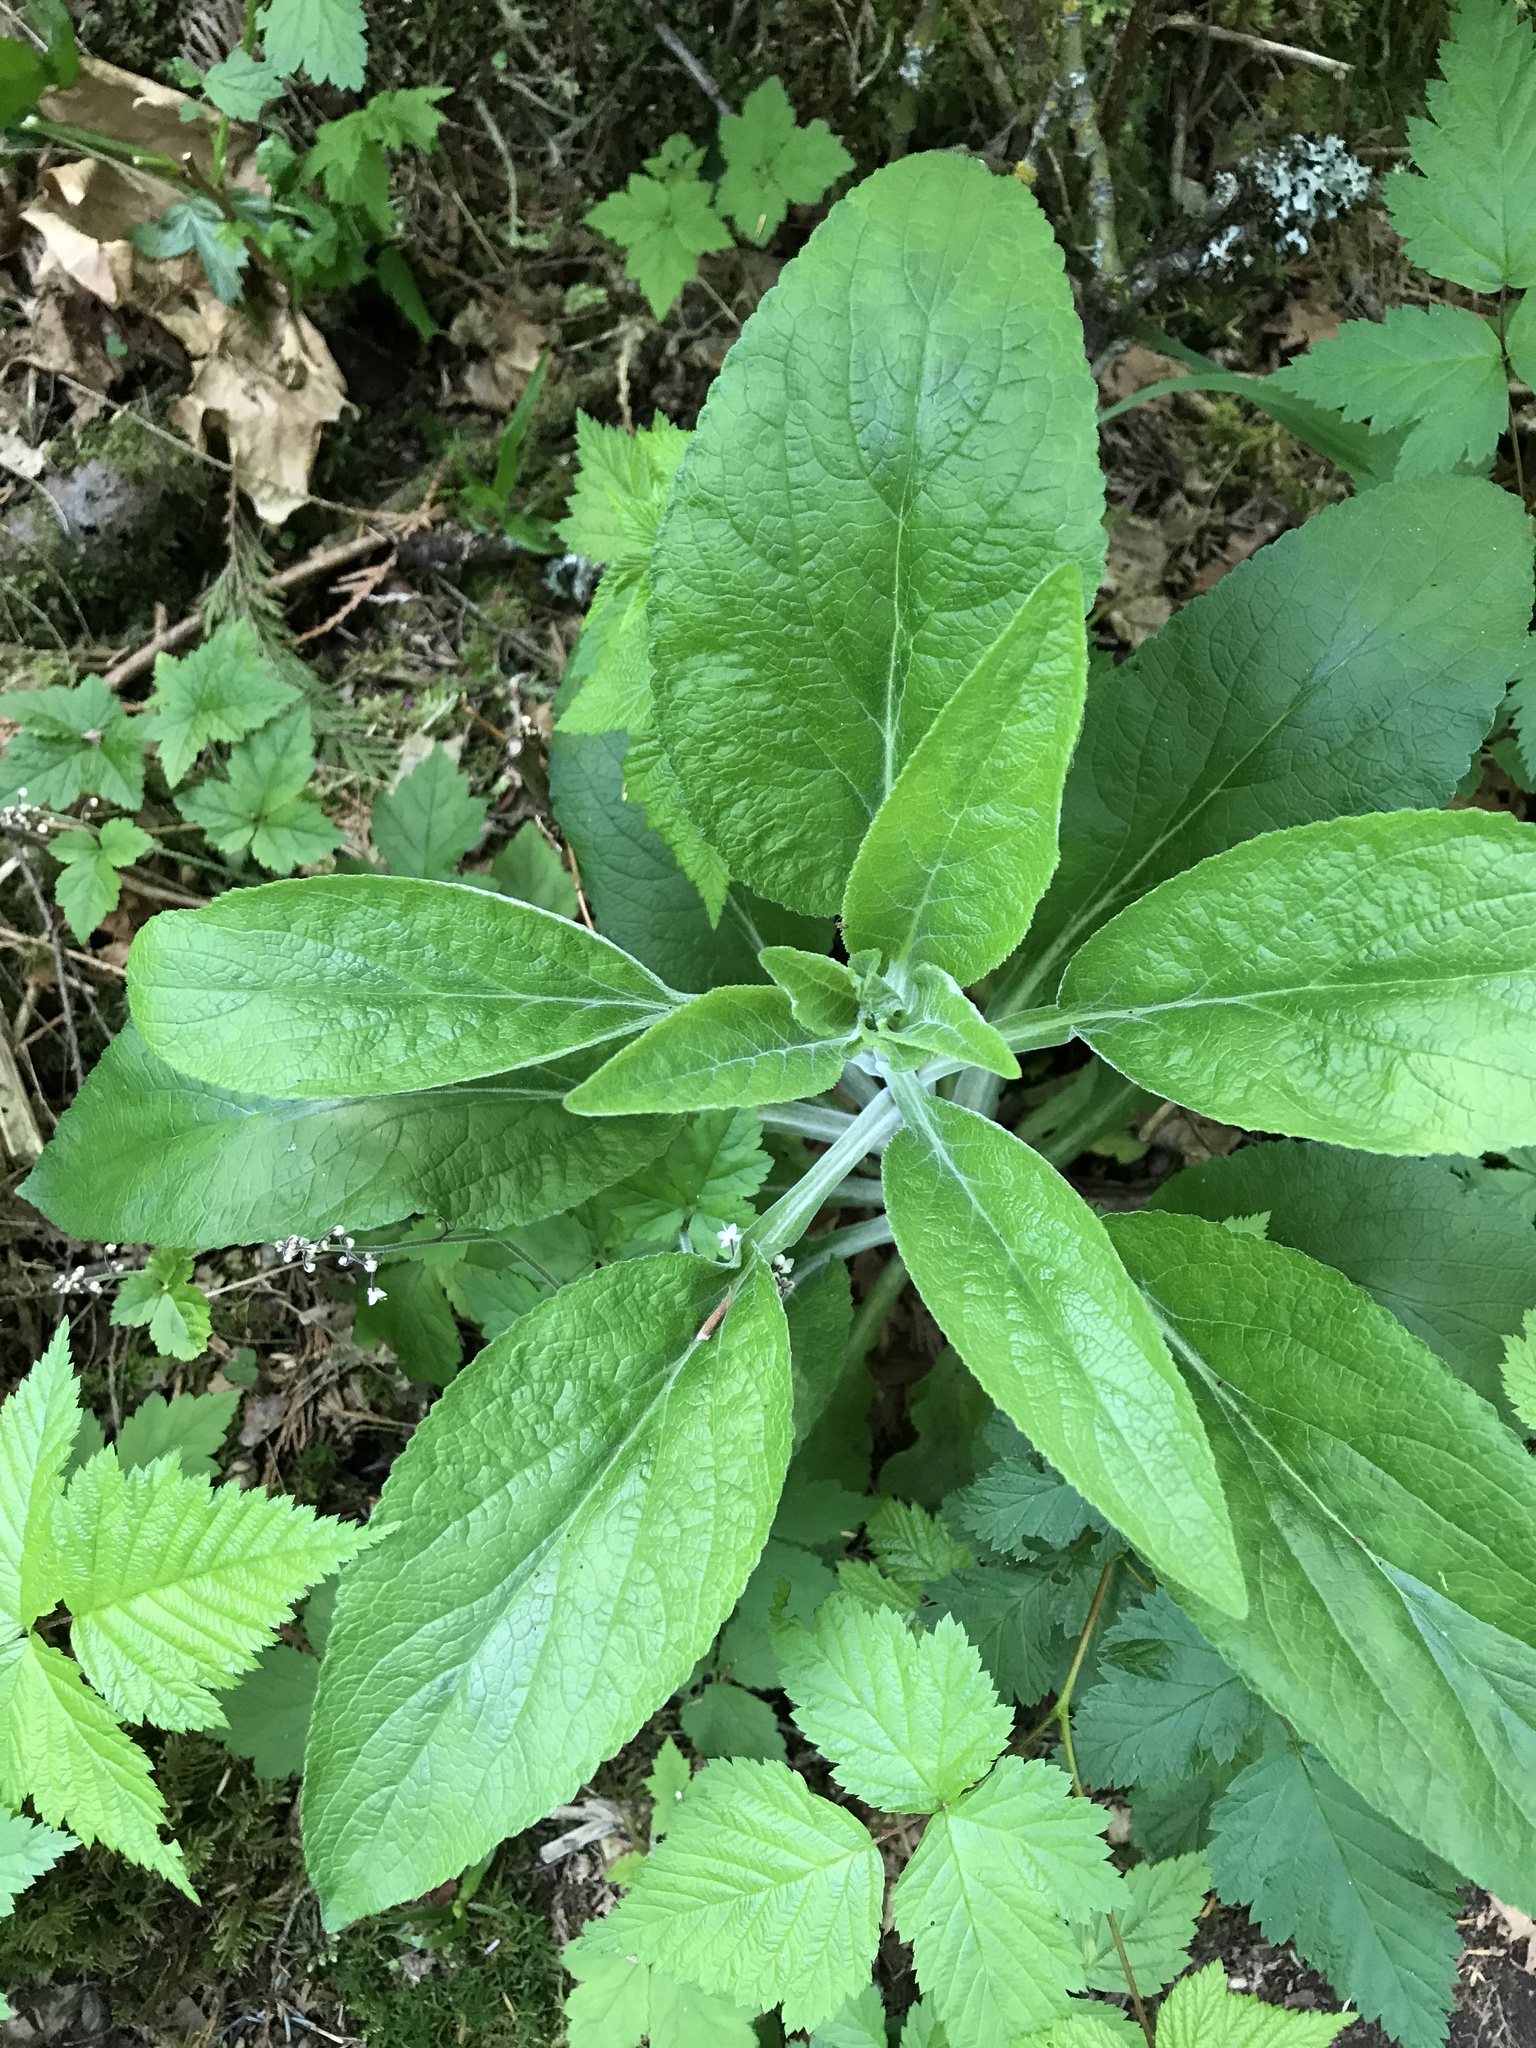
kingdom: Plantae
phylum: Tracheophyta
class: Magnoliopsida
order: Lamiales
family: Plantaginaceae
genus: Digitalis
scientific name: Digitalis purpurea
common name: Foxglove
